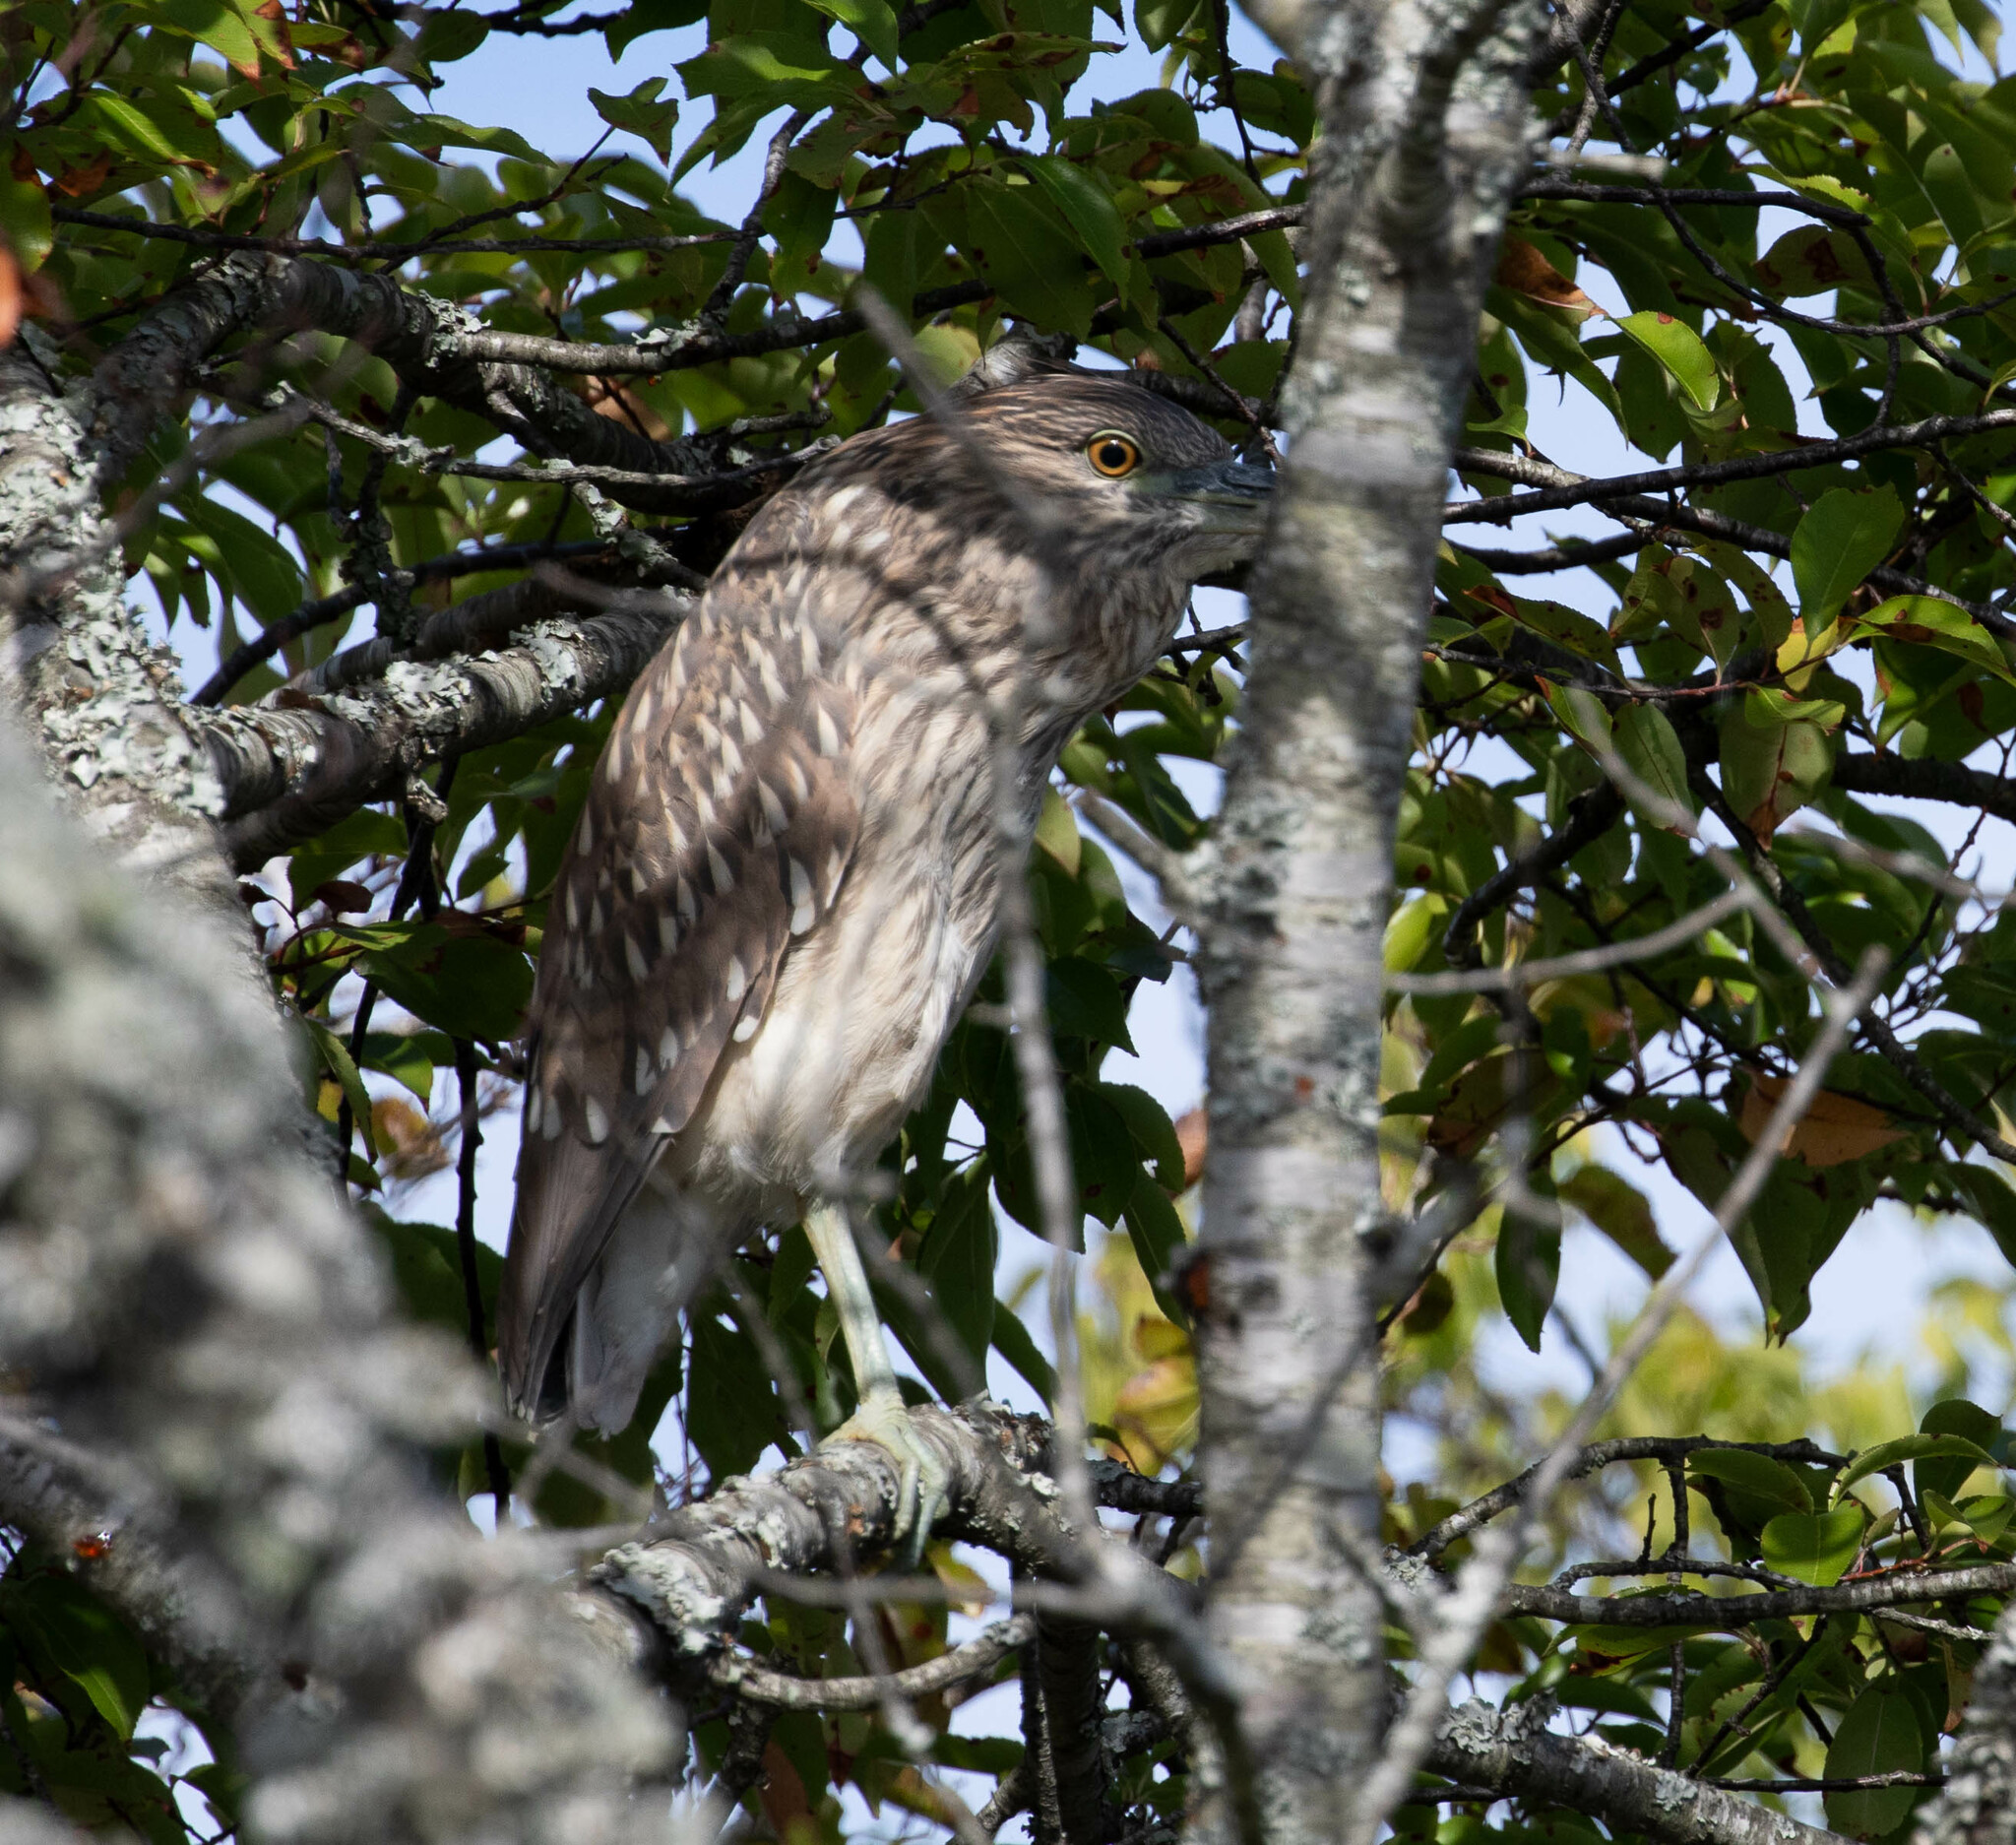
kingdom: Animalia
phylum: Chordata
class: Aves
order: Pelecaniformes
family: Ardeidae
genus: Nycticorax
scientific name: Nycticorax nycticorax
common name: Black-crowned night heron
